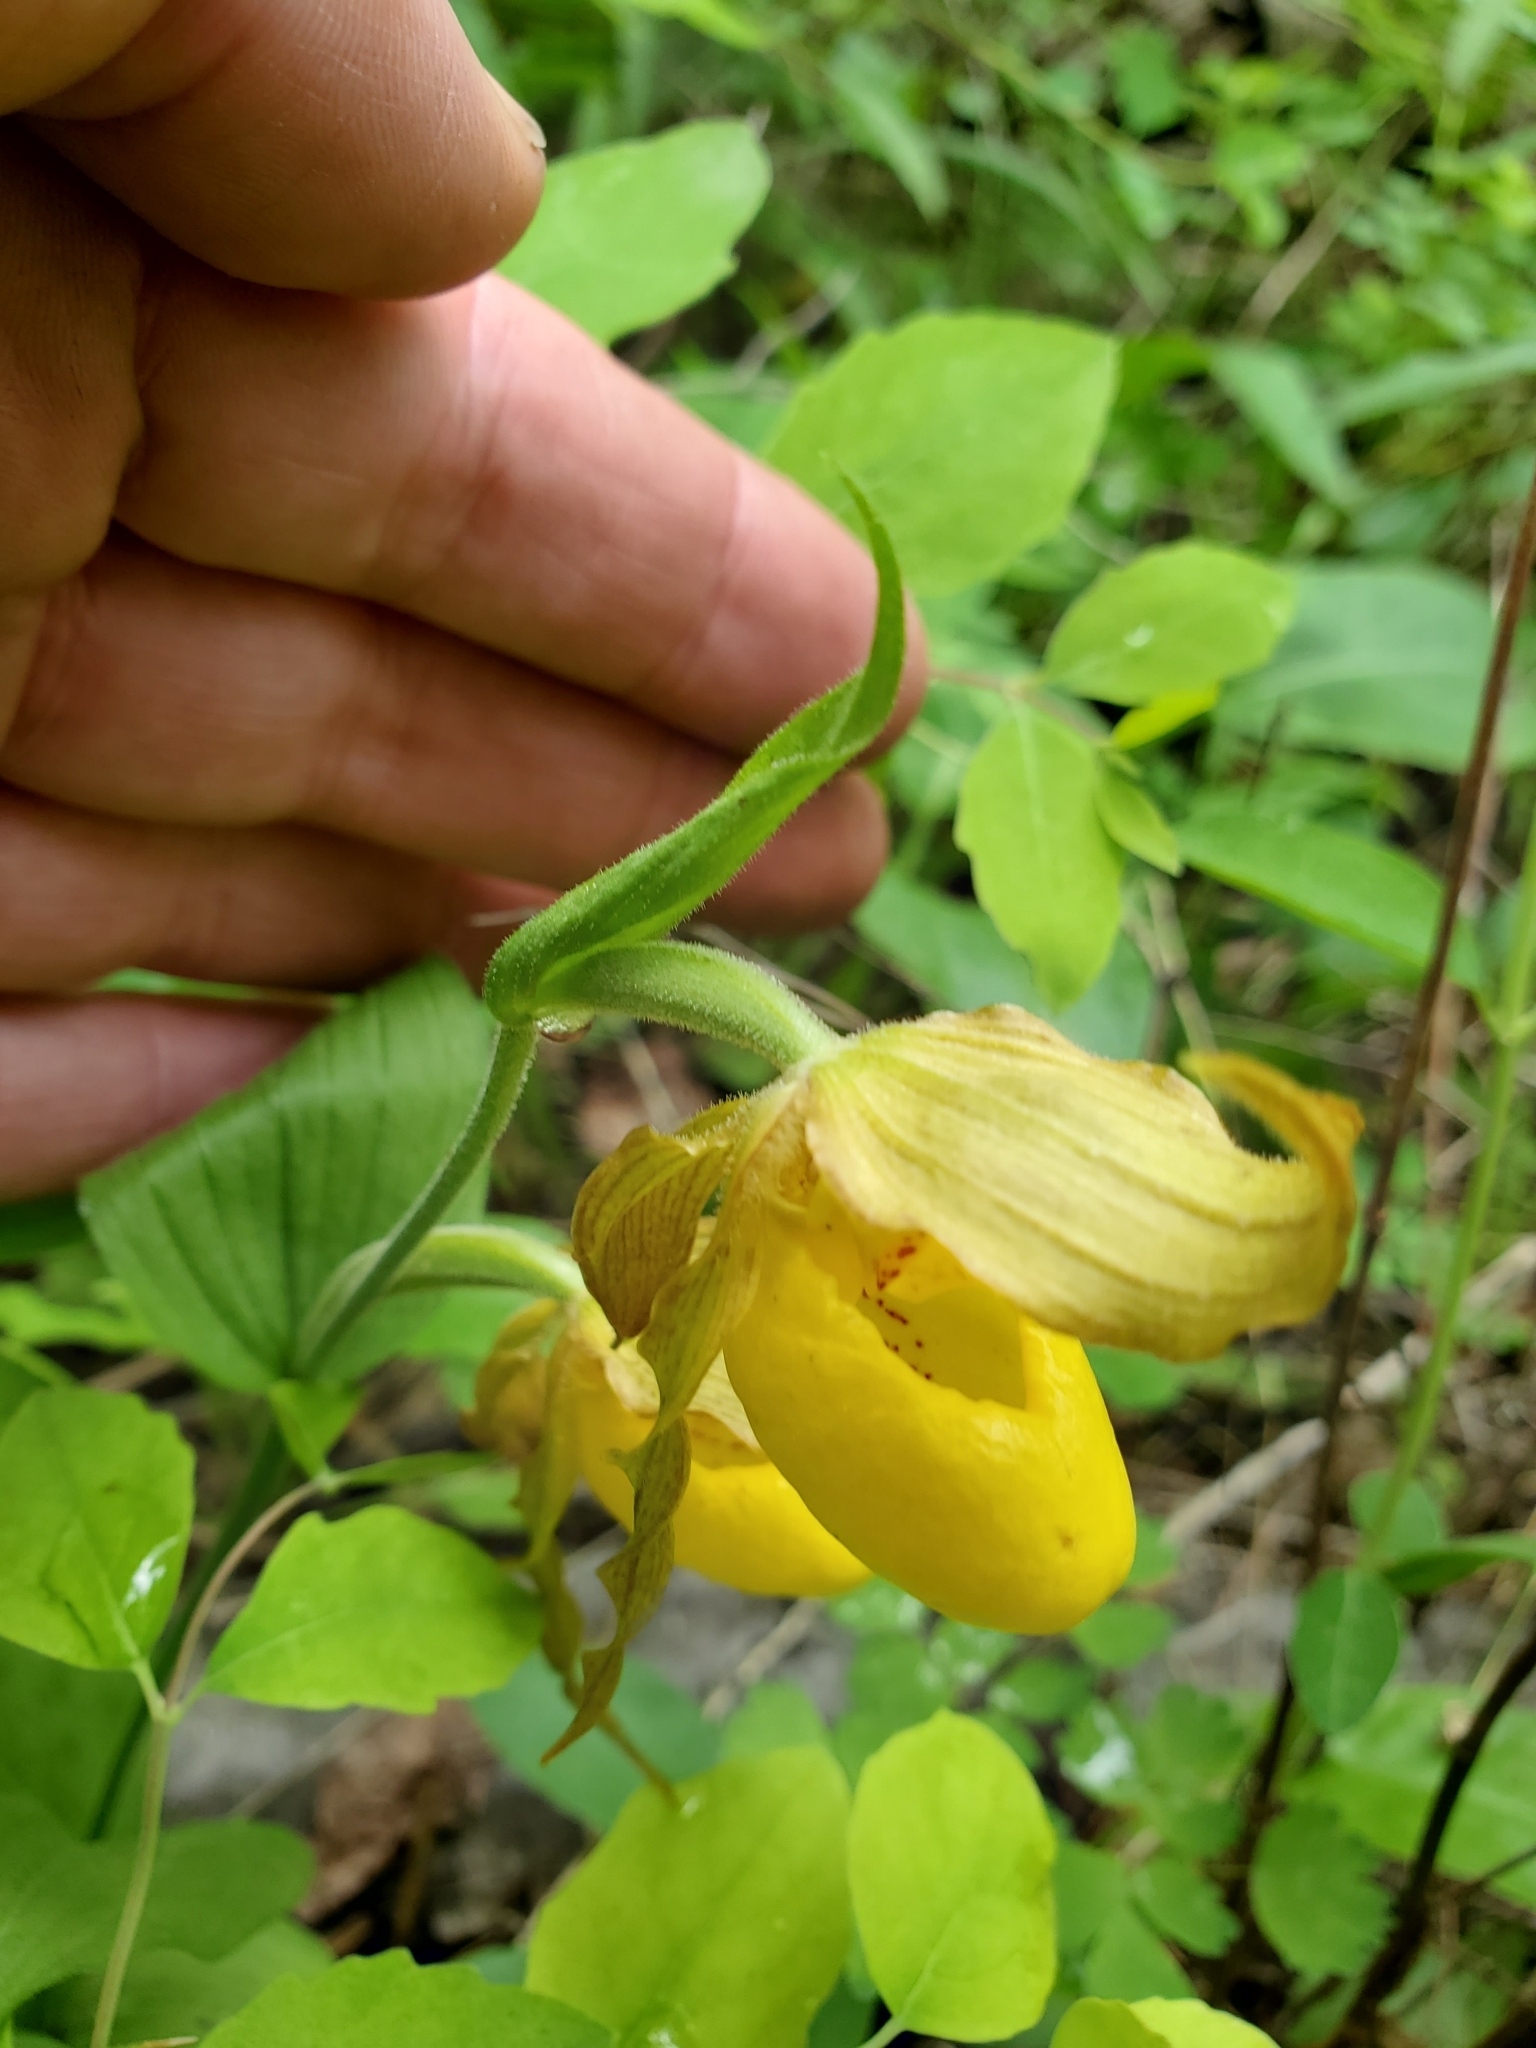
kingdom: Plantae
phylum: Tracheophyta
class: Liliopsida
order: Asparagales
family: Orchidaceae
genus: Cypripedium
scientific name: Cypripedium parviflorum
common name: American yellow lady's-slipper
